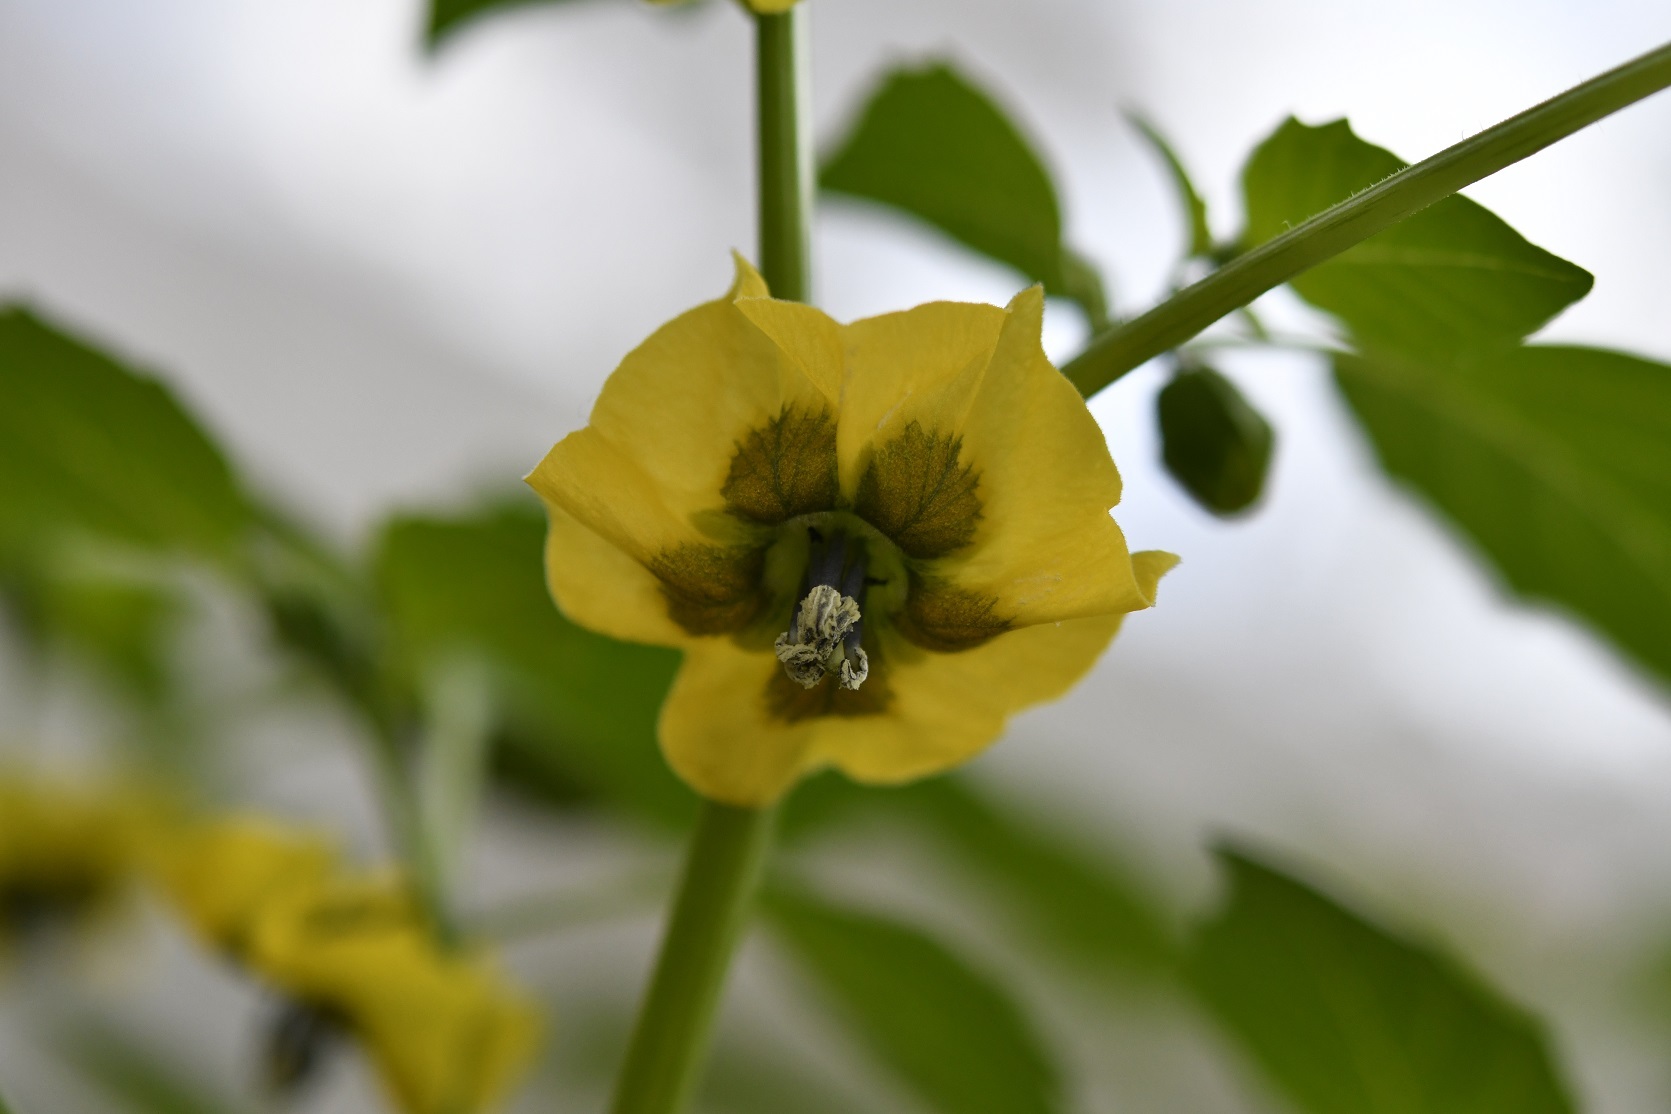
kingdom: Plantae
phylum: Tracheophyta
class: Magnoliopsida
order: Solanales
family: Solanaceae
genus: Physalis
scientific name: Physalis philadelphica
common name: Husk-tomato
